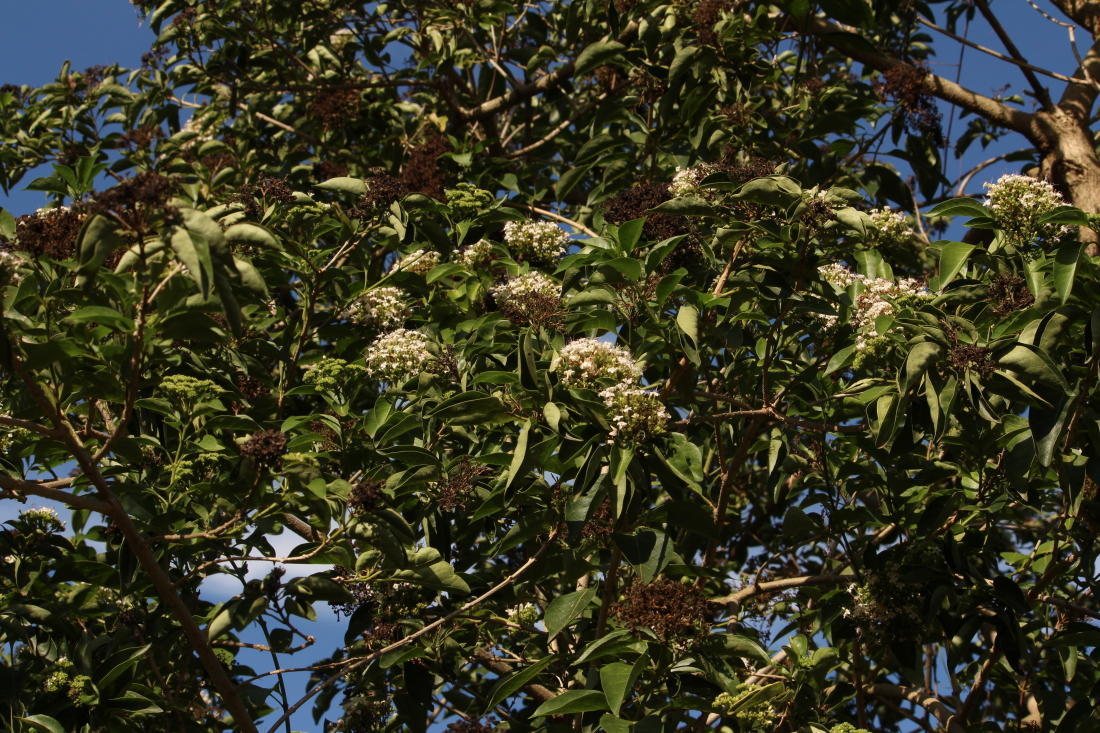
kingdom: Plantae
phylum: Tracheophyta
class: Magnoliopsida
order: Lamiales
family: Lamiaceae
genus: Volkameria
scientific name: Volkameria glabra
